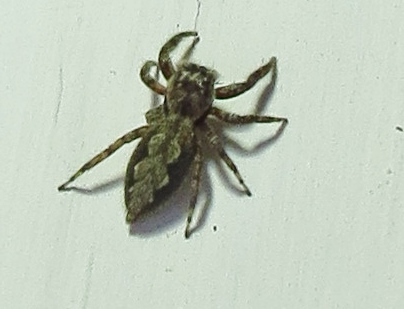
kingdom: Animalia
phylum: Arthropoda
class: Arachnida
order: Araneae
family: Salticidae
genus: Platycryptus
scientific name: Platycryptus undatus
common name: Tan jumping spider
